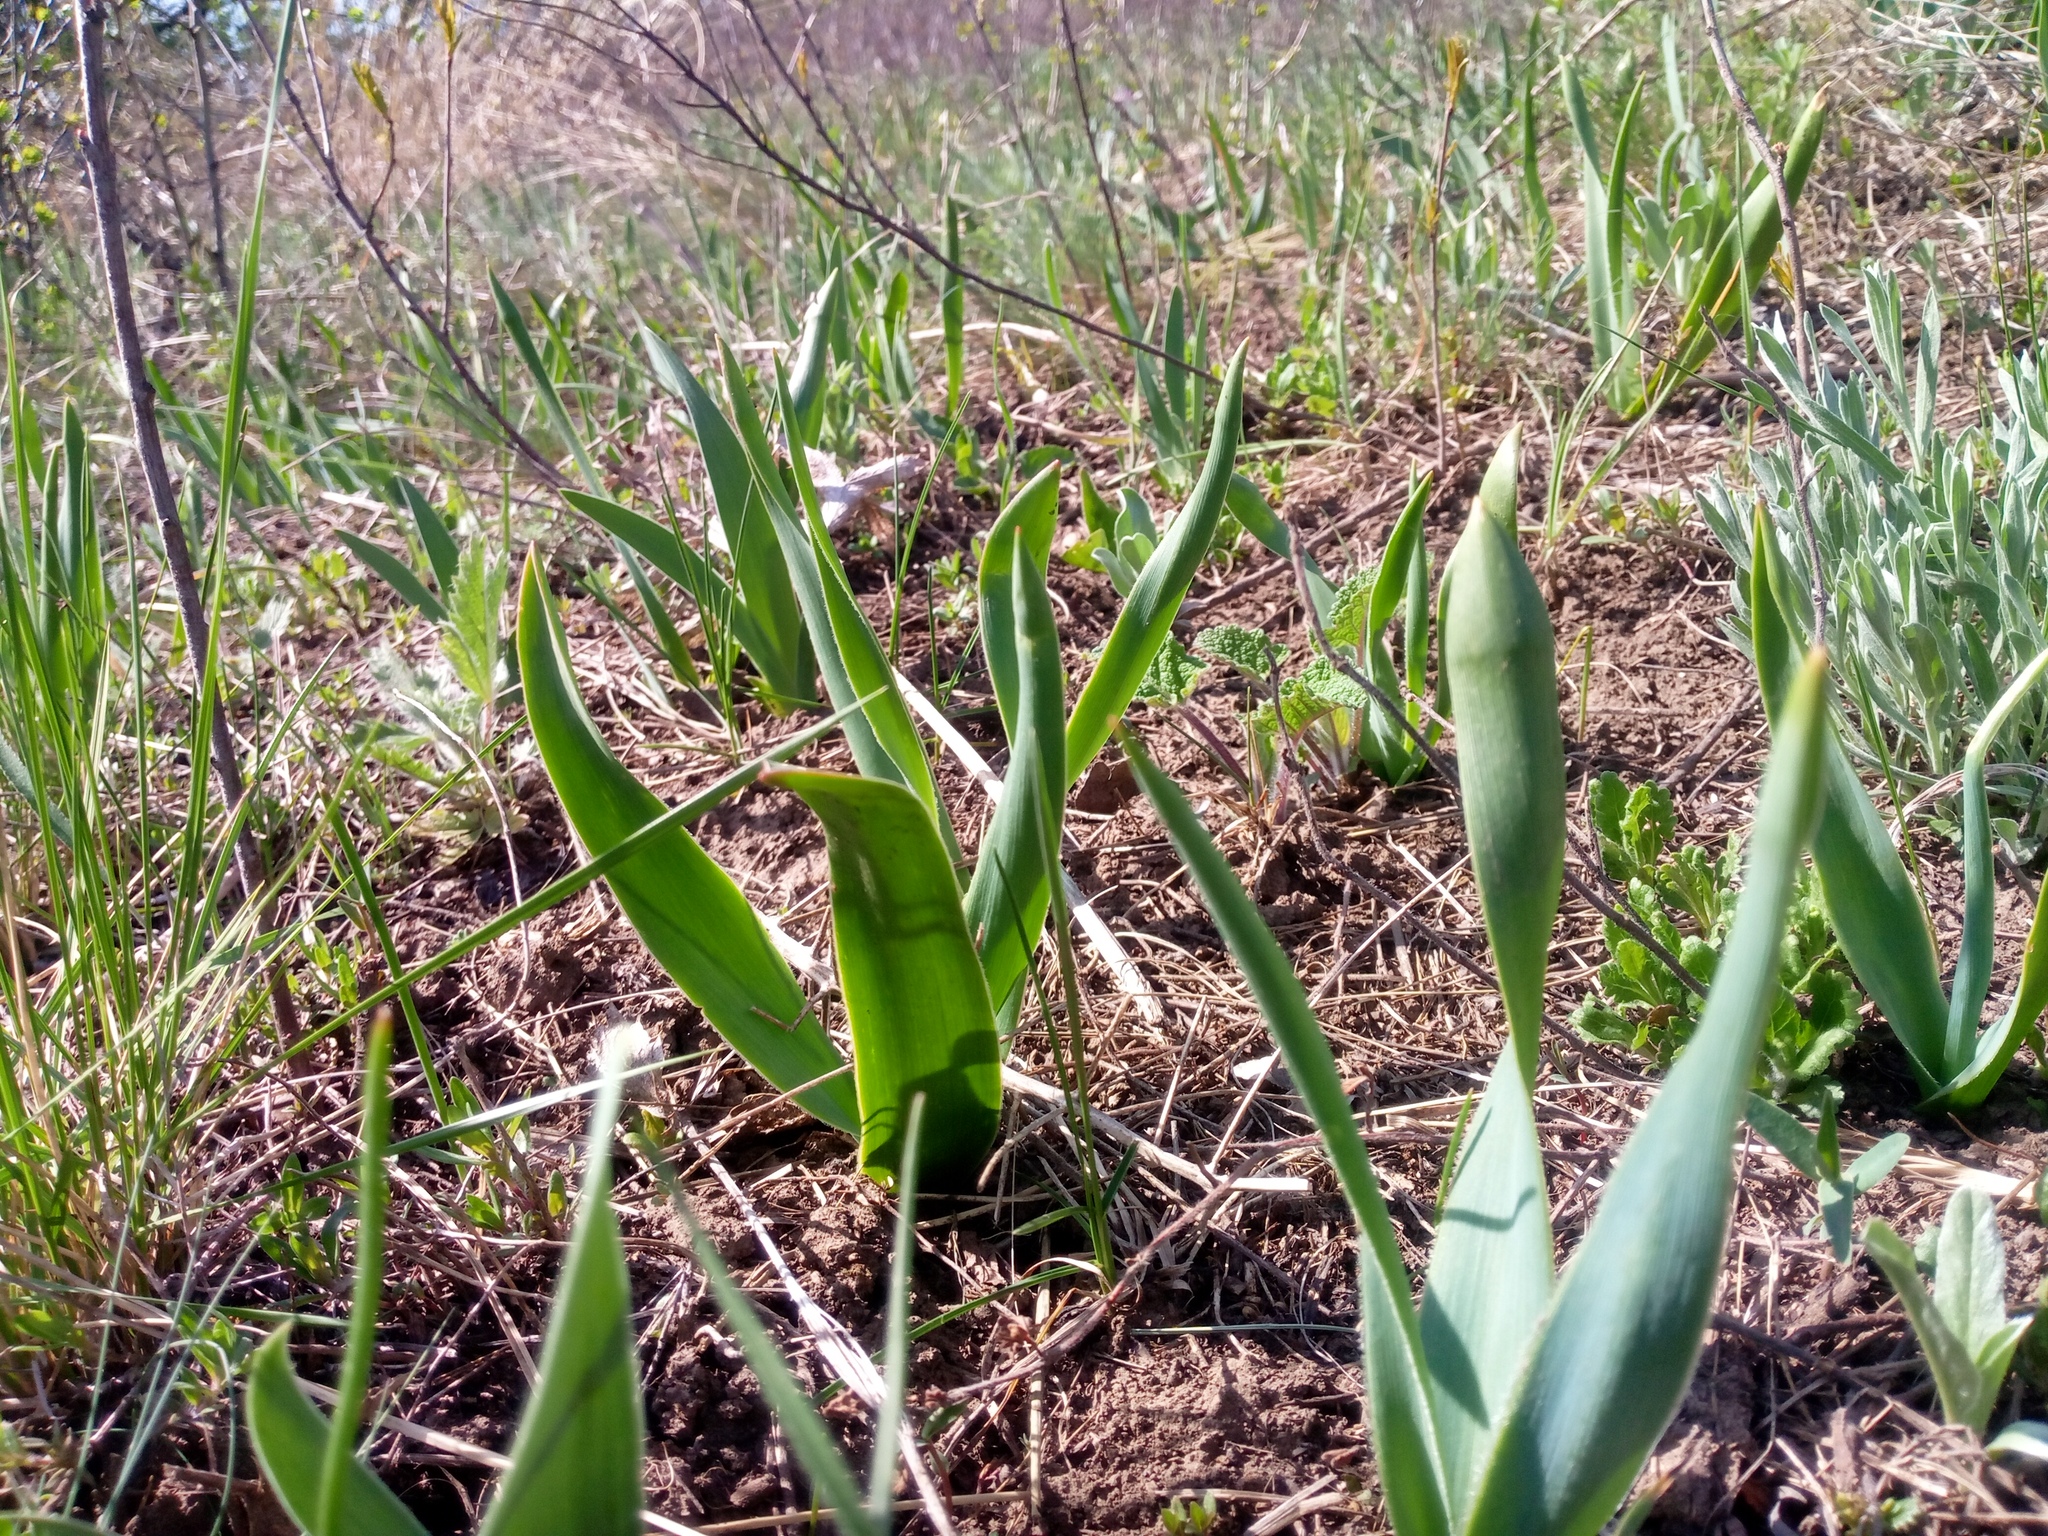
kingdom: Plantae
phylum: Tracheophyta
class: Liliopsida
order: Asparagales
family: Asparagaceae
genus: Bellevalia
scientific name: Bellevalia speciosa
